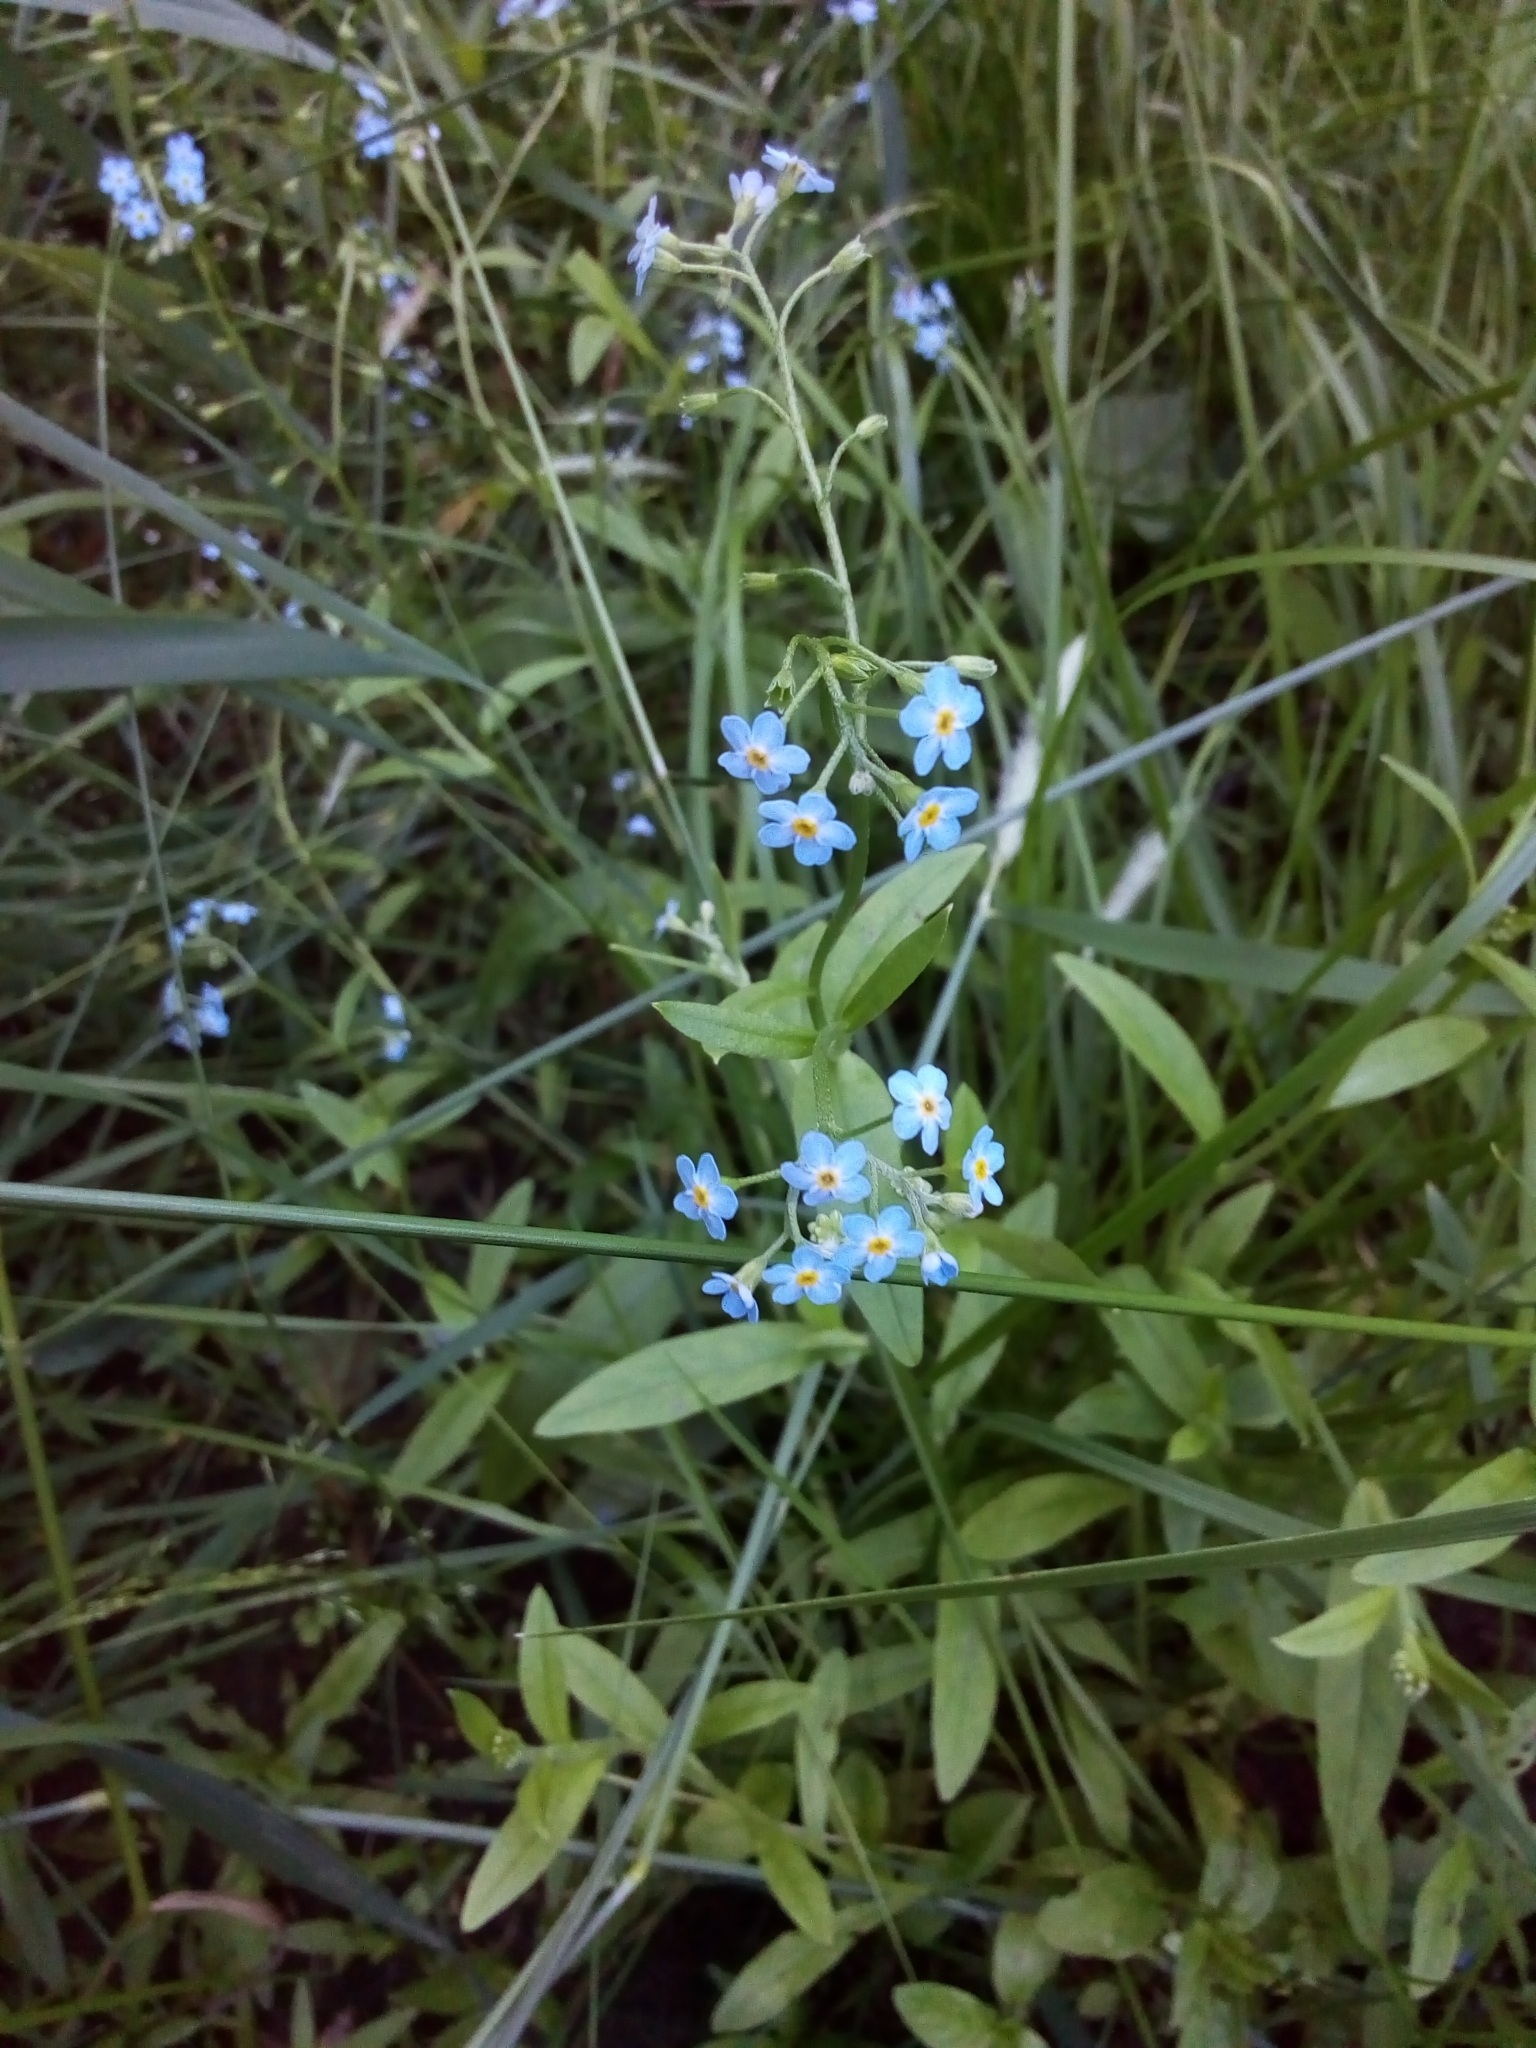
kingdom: Plantae
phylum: Tracheophyta
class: Magnoliopsida
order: Boraginales
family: Boraginaceae
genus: Myosotis
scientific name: Myosotis scorpioides
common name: Water forget-me-not
